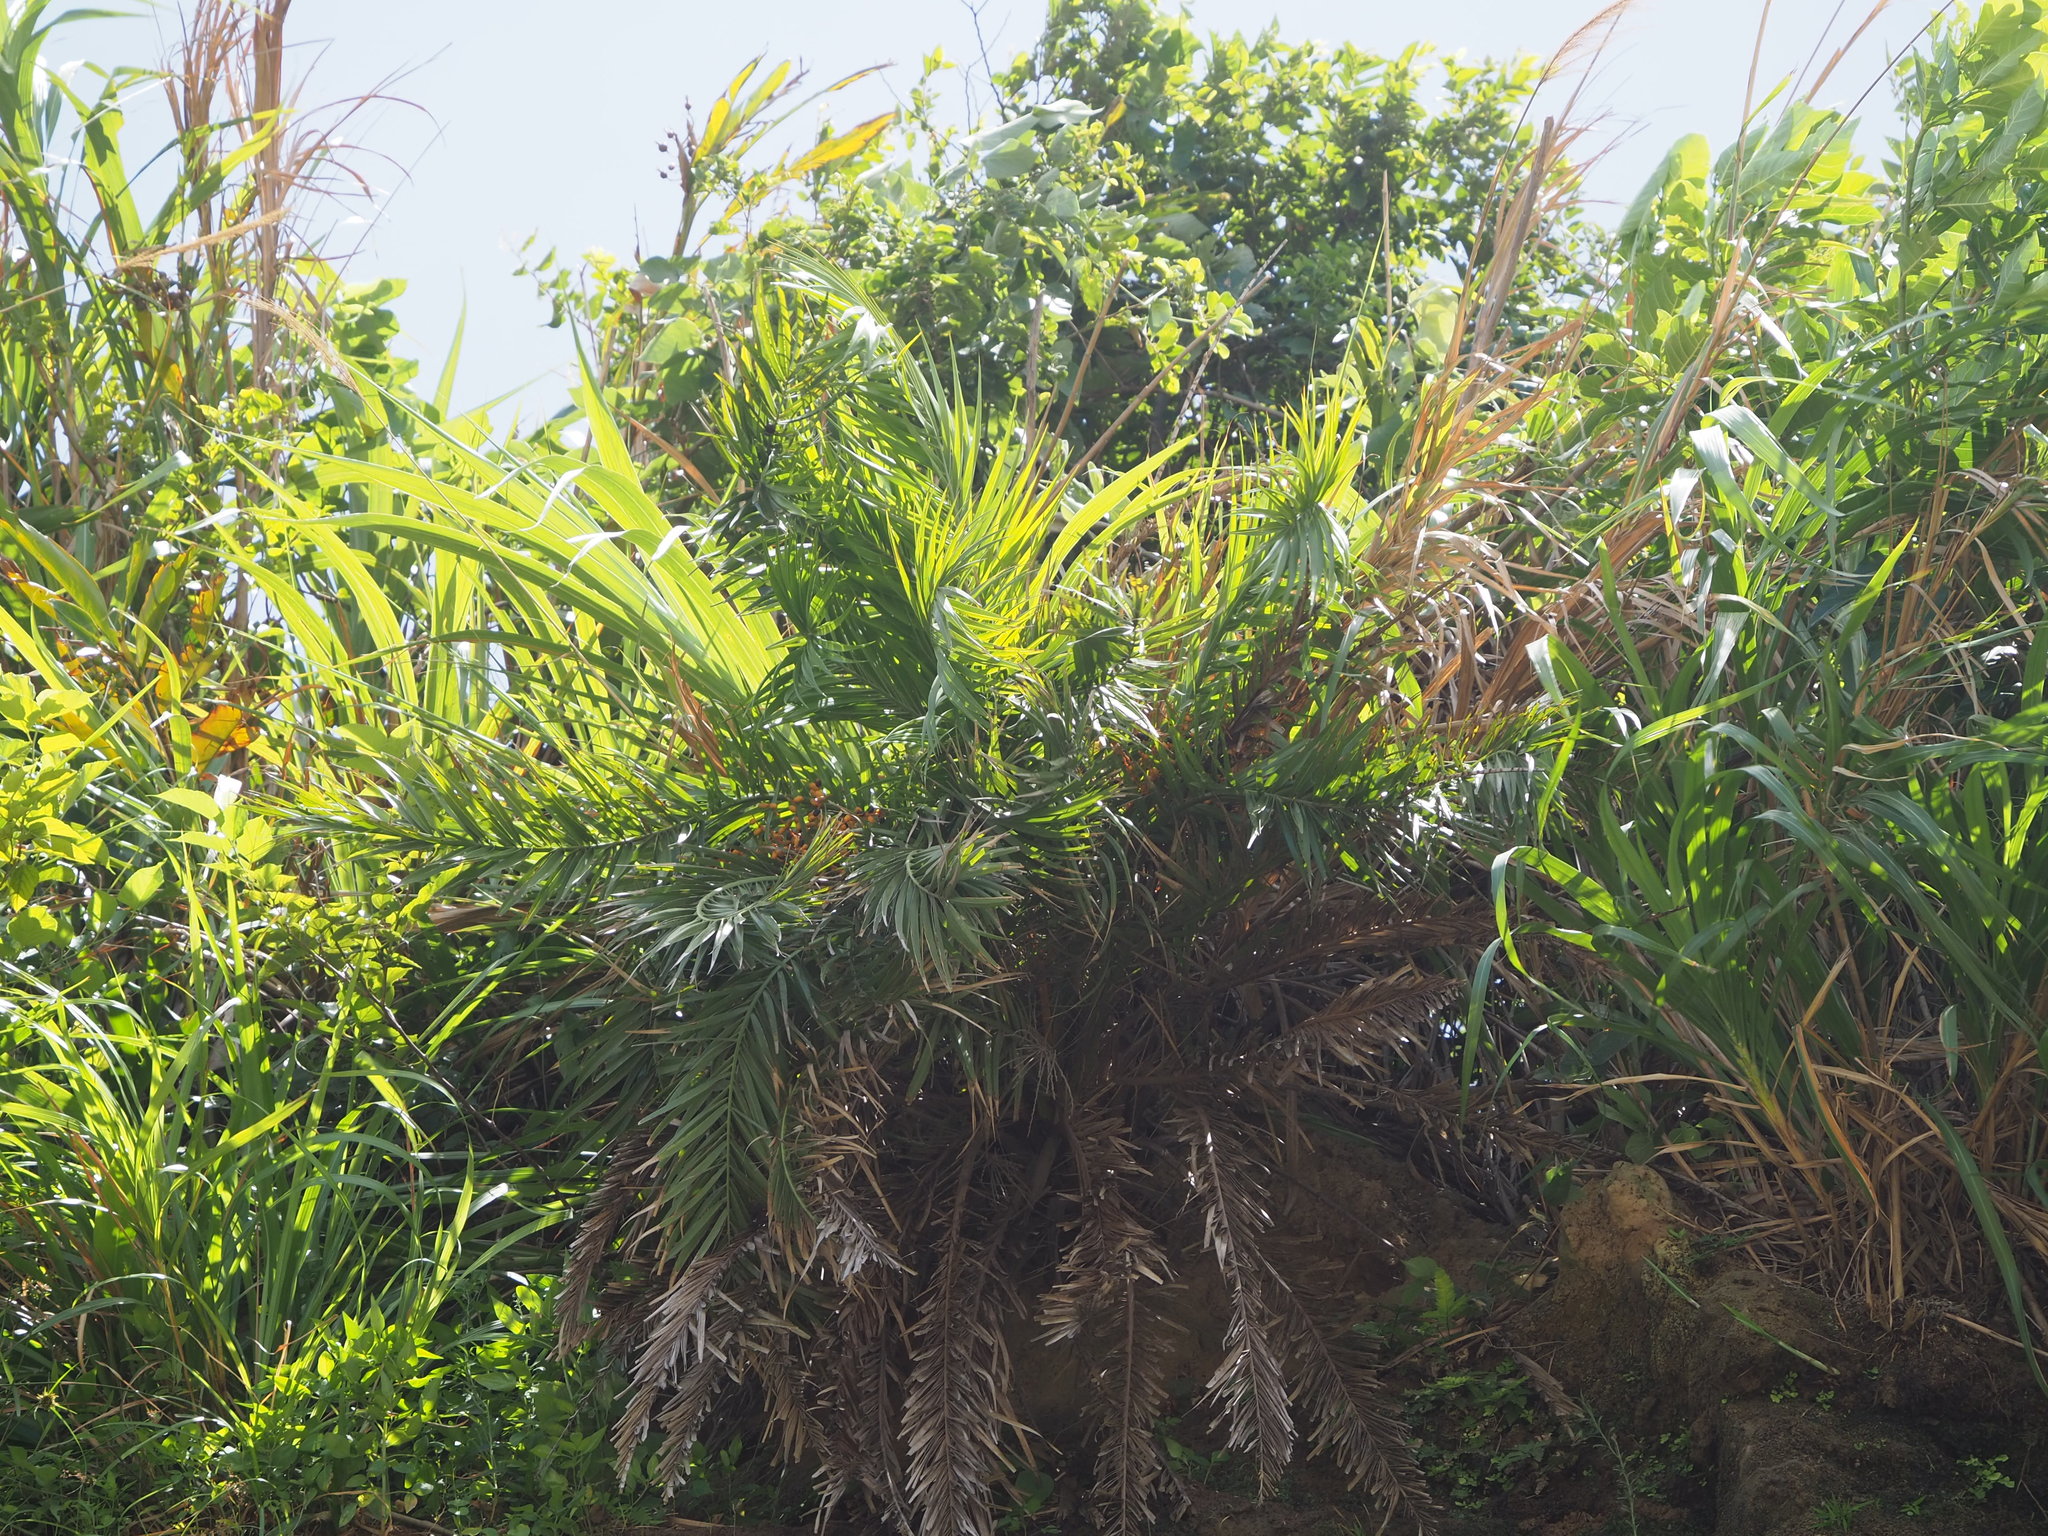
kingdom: Plantae
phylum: Tracheophyta
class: Liliopsida
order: Arecales
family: Arecaceae
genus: Phoenix
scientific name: Phoenix loureiroi
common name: Loureiro's palm
